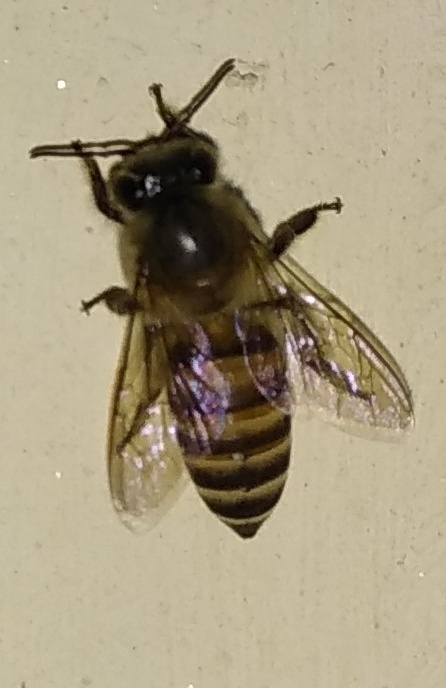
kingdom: Animalia
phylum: Arthropoda
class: Insecta
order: Hymenoptera
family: Apidae
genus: Apis
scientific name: Apis cerana
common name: Honey bee
